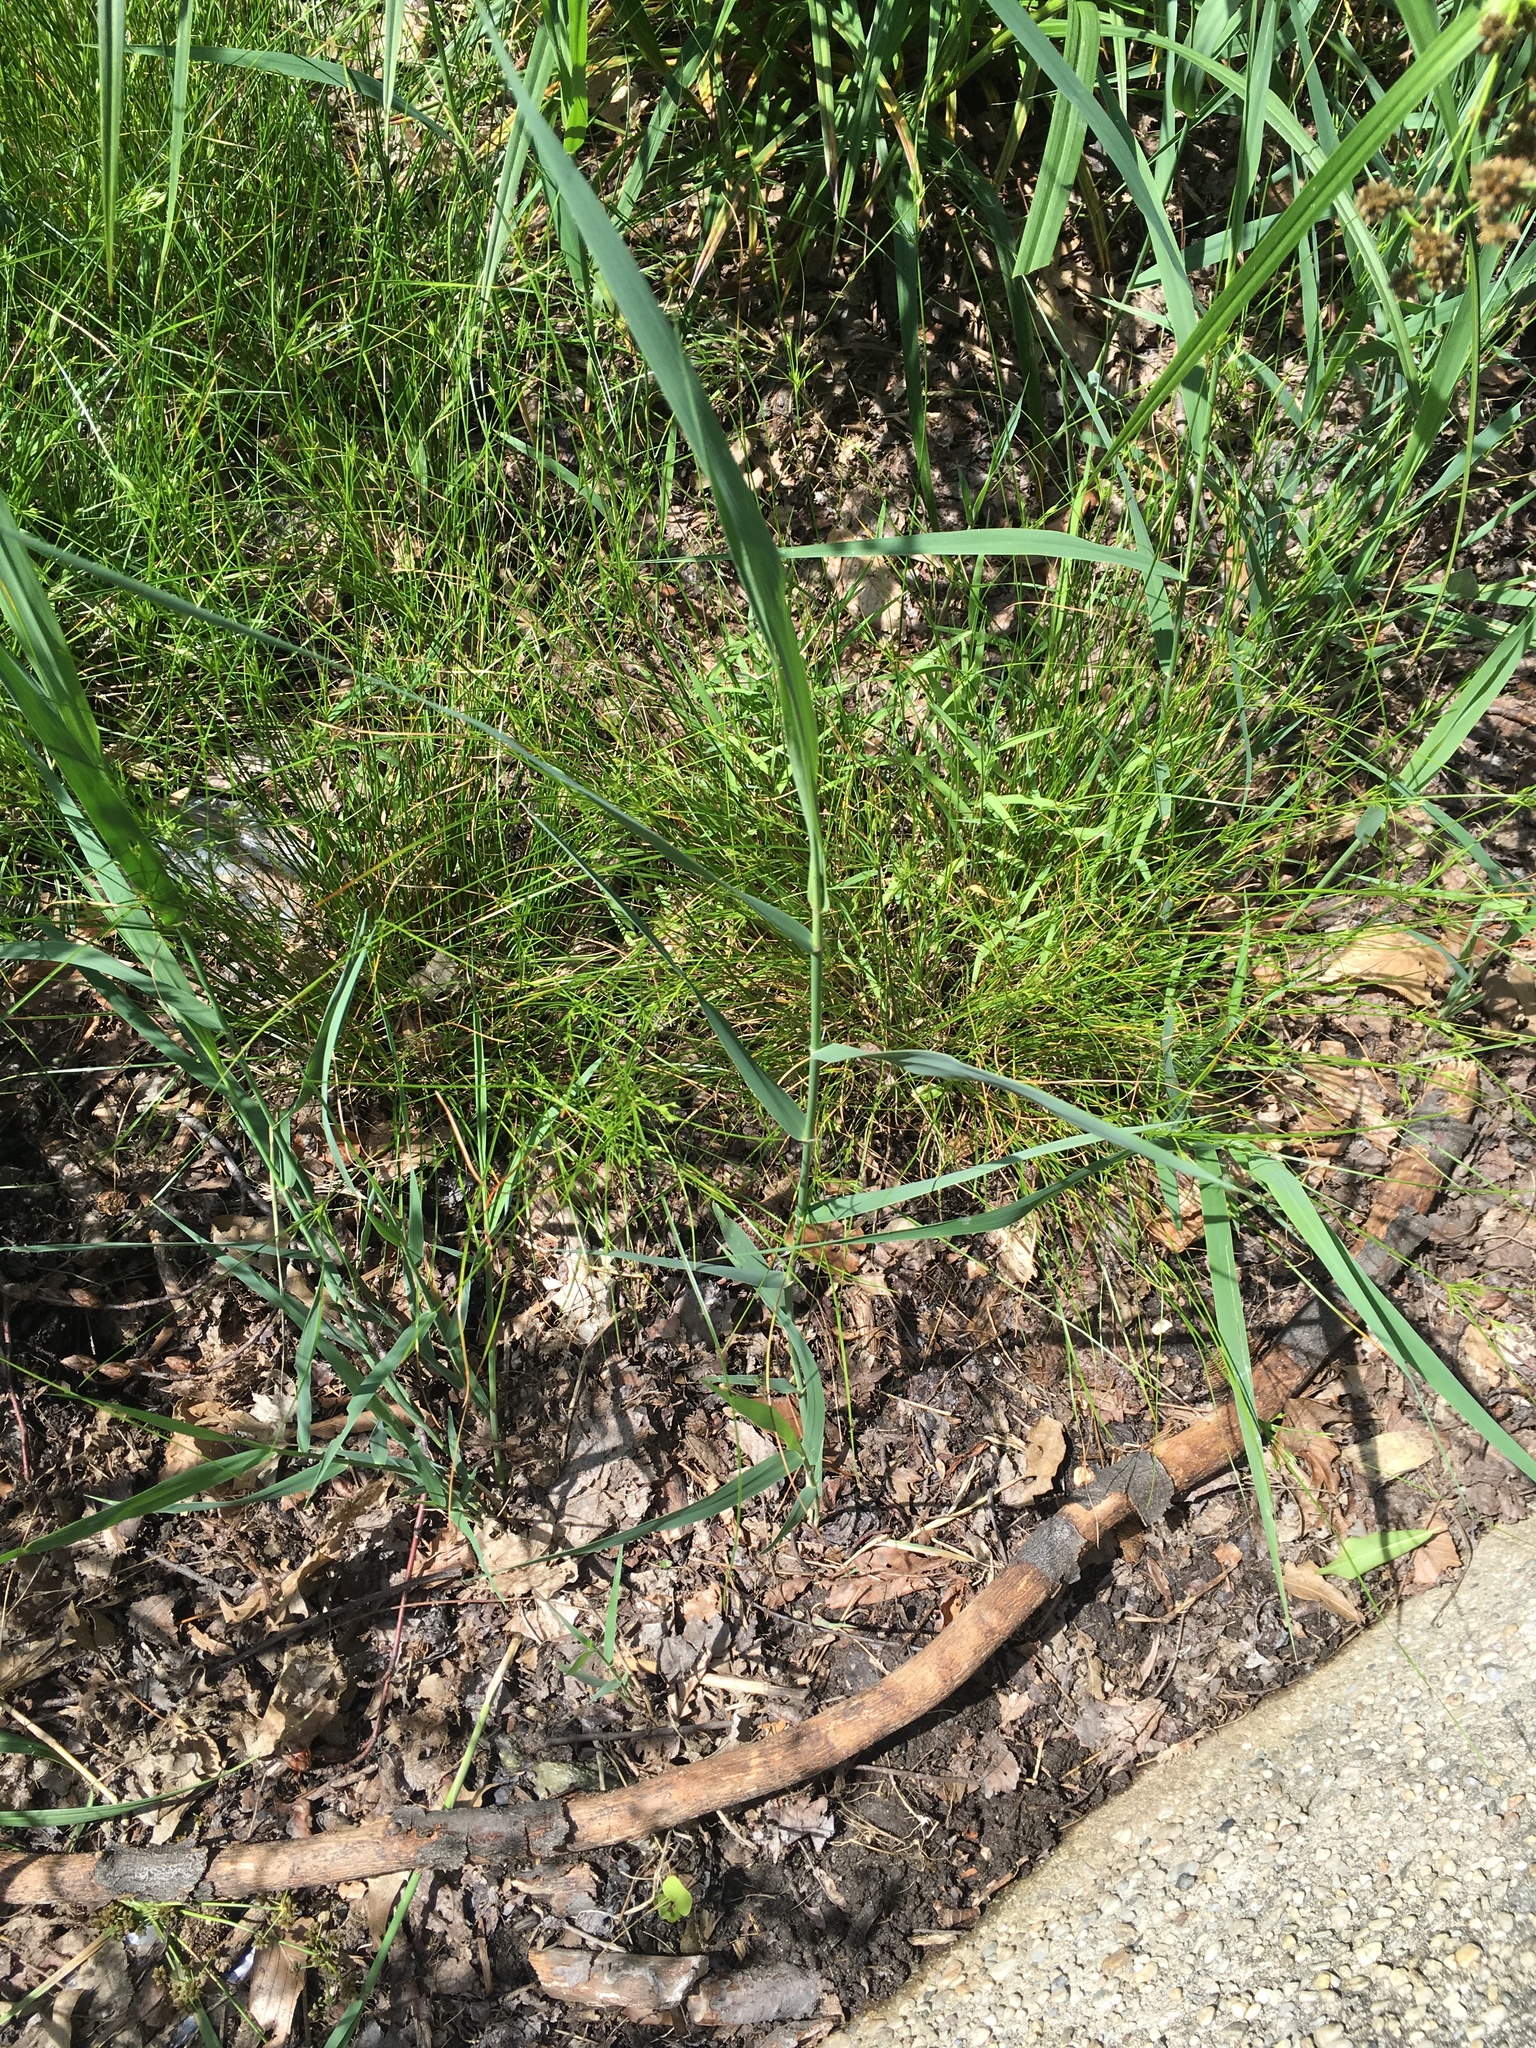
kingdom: Plantae
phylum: Tracheophyta
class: Liliopsida
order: Poales
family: Poaceae
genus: Phragmites
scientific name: Phragmites australis
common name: Common reed
